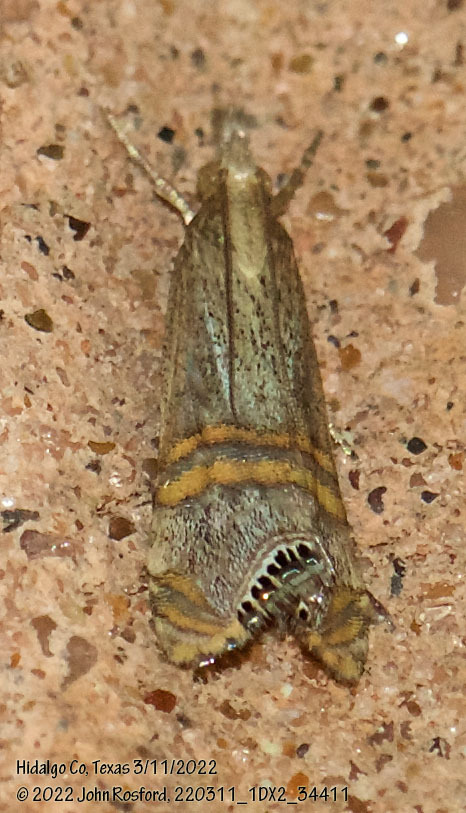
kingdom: Animalia
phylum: Arthropoda
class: Insecta
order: Lepidoptera
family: Crambidae
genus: Euchromius
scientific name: Euchromius ocellea
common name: Necklace veneer moth
